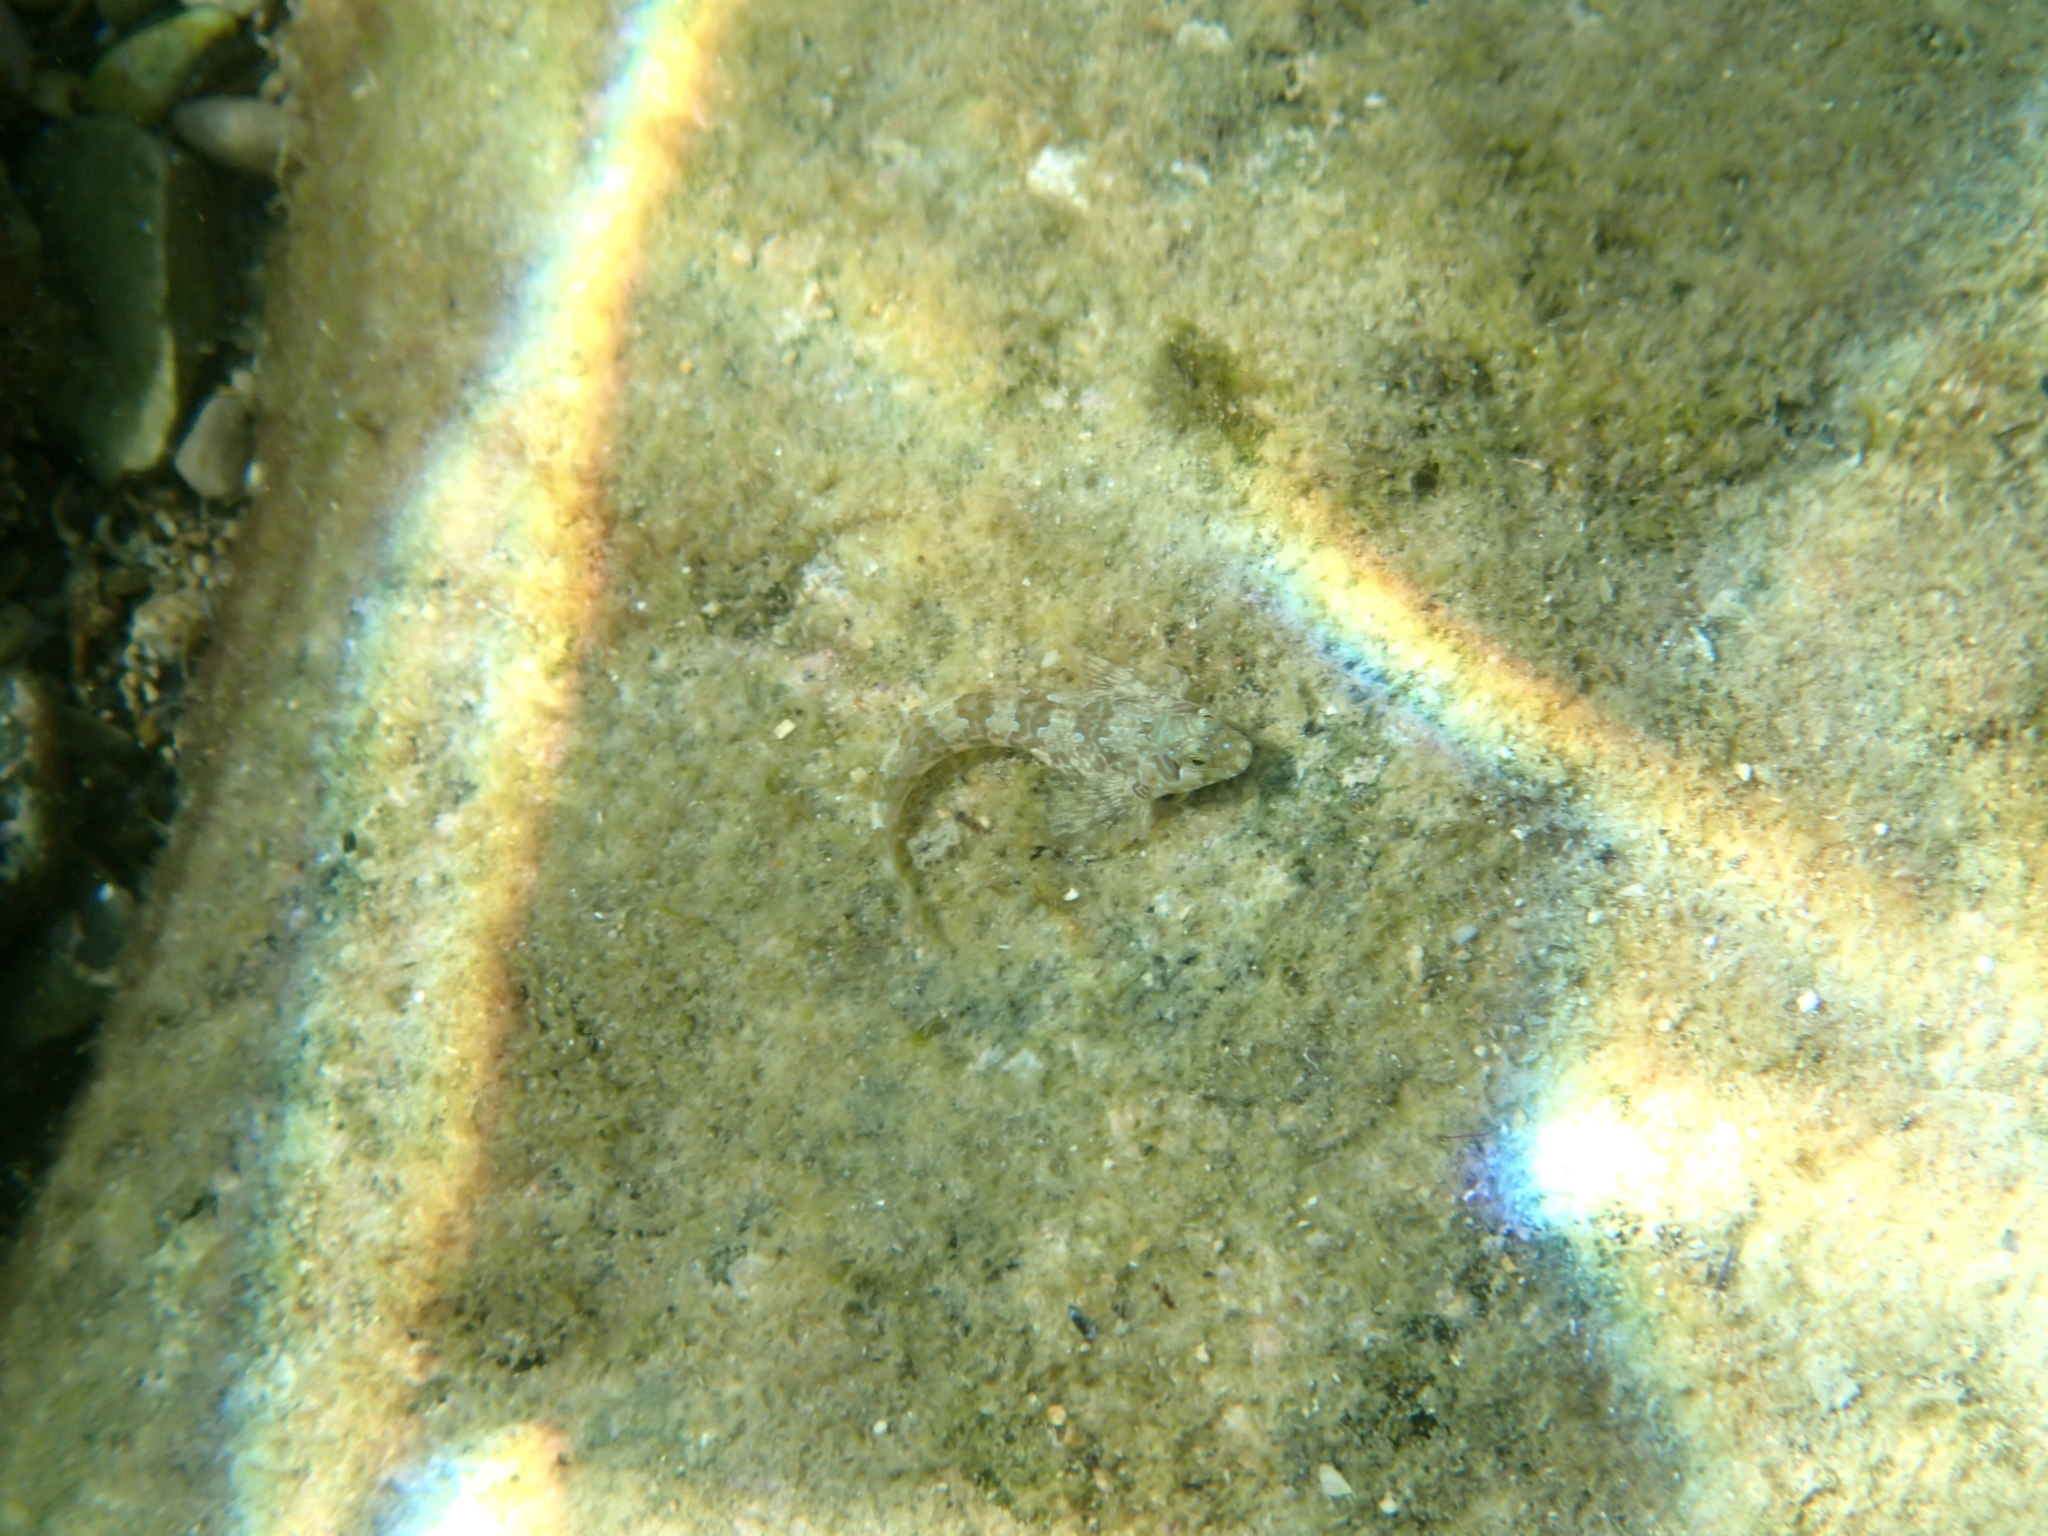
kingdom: Animalia
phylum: Chordata
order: Perciformes
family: Blenniidae
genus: Aidablennius
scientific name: Aidablennius sphynx
